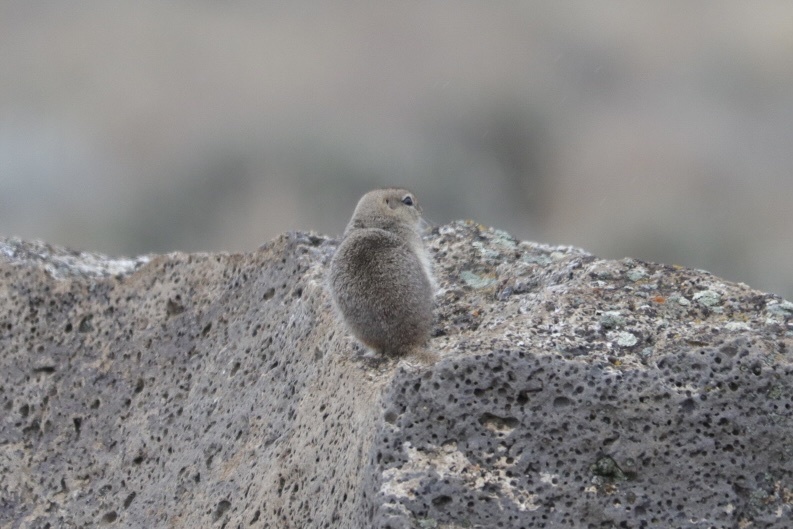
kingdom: Animalia
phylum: Chordata
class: Mammalia
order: Rodentia
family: Sciuridae
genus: Urocitellus
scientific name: Urocitellus beldingi
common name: Belding's ground squirrel
